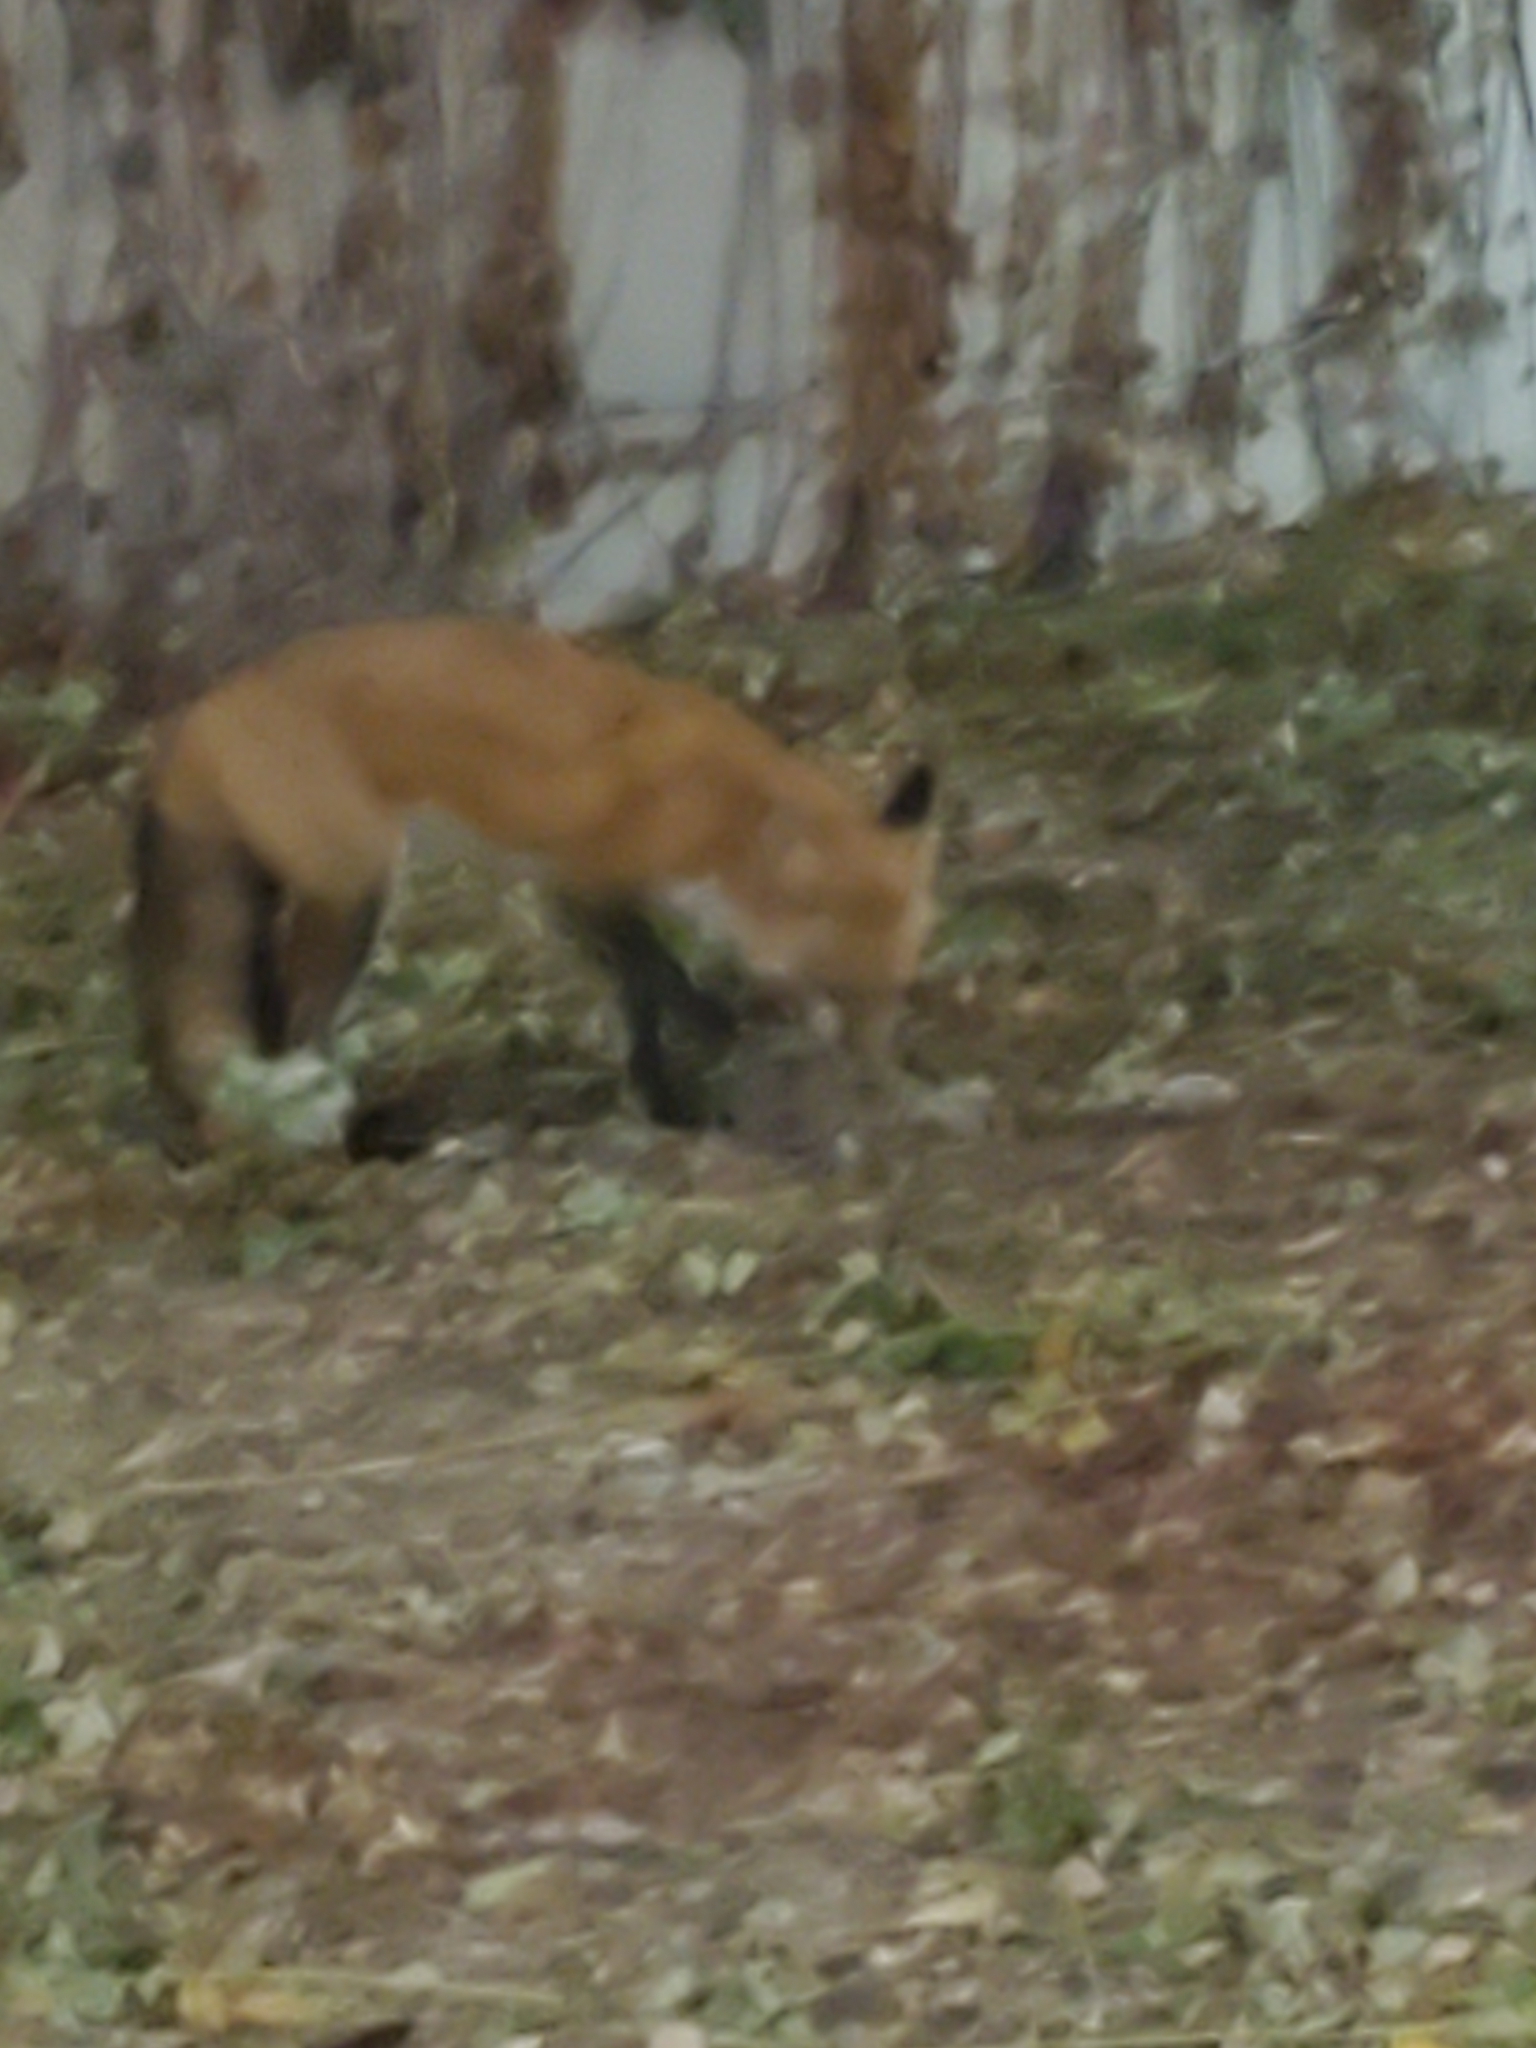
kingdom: Animalia
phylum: Chordata
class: Mammalia
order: Carnivora
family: Canidae
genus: Vulpes
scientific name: Vulpes vulpes
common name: Red fox
